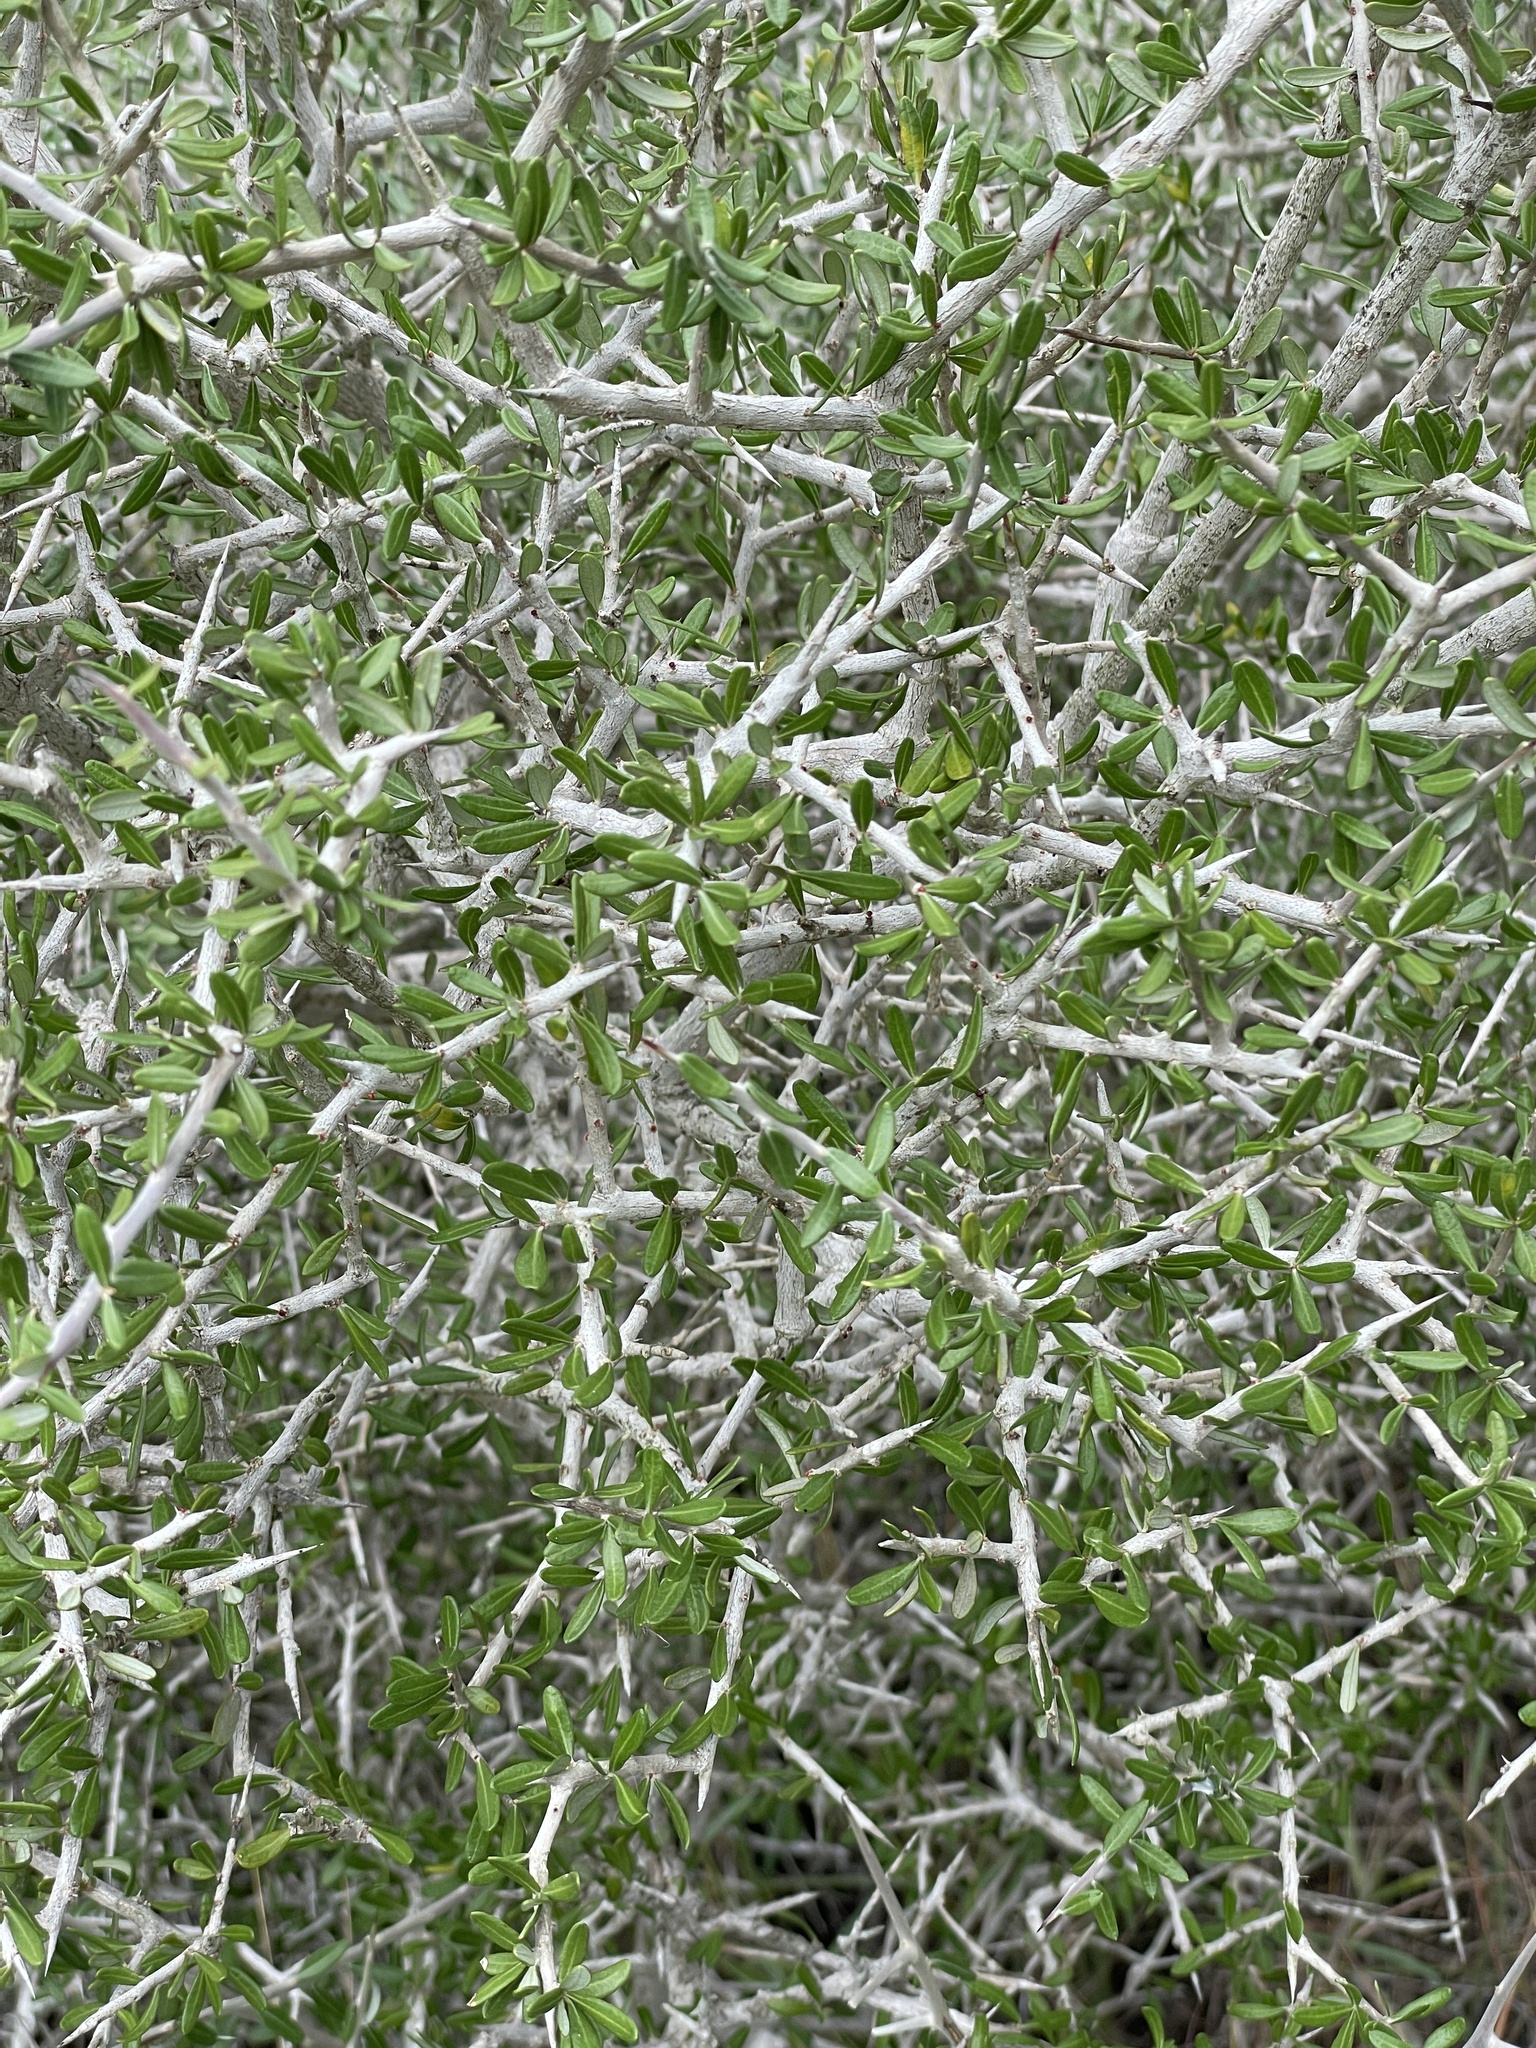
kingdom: Plantae
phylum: Tracheophyta
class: Magnoliopsida
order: Sapindales
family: Simaroubaceae
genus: Castela
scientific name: Castela erecta
